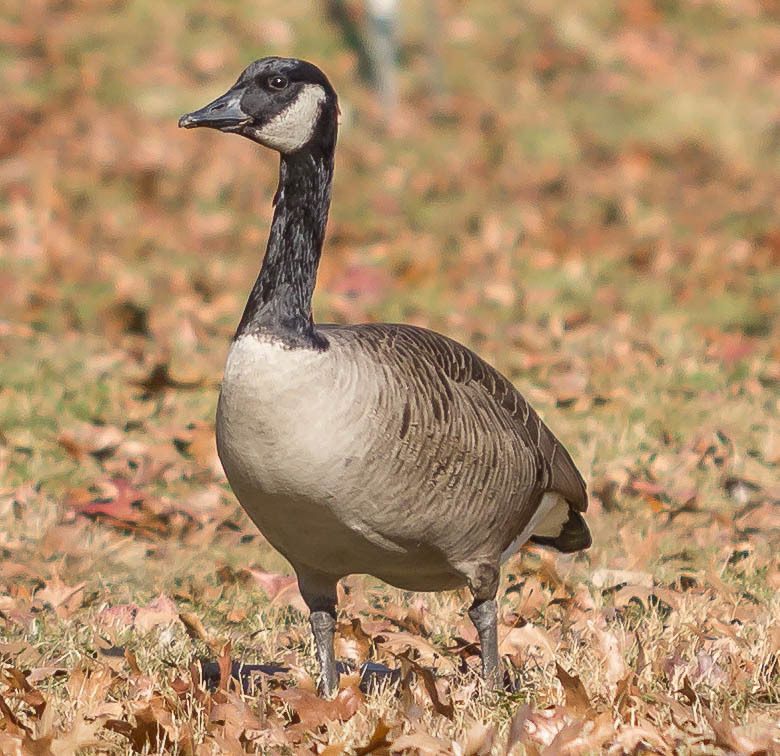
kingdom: Animalia
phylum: Chordata
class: Aves
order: Anseriformes
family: Anatidae
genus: Branta
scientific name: Branta canadensis
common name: Canada goose
